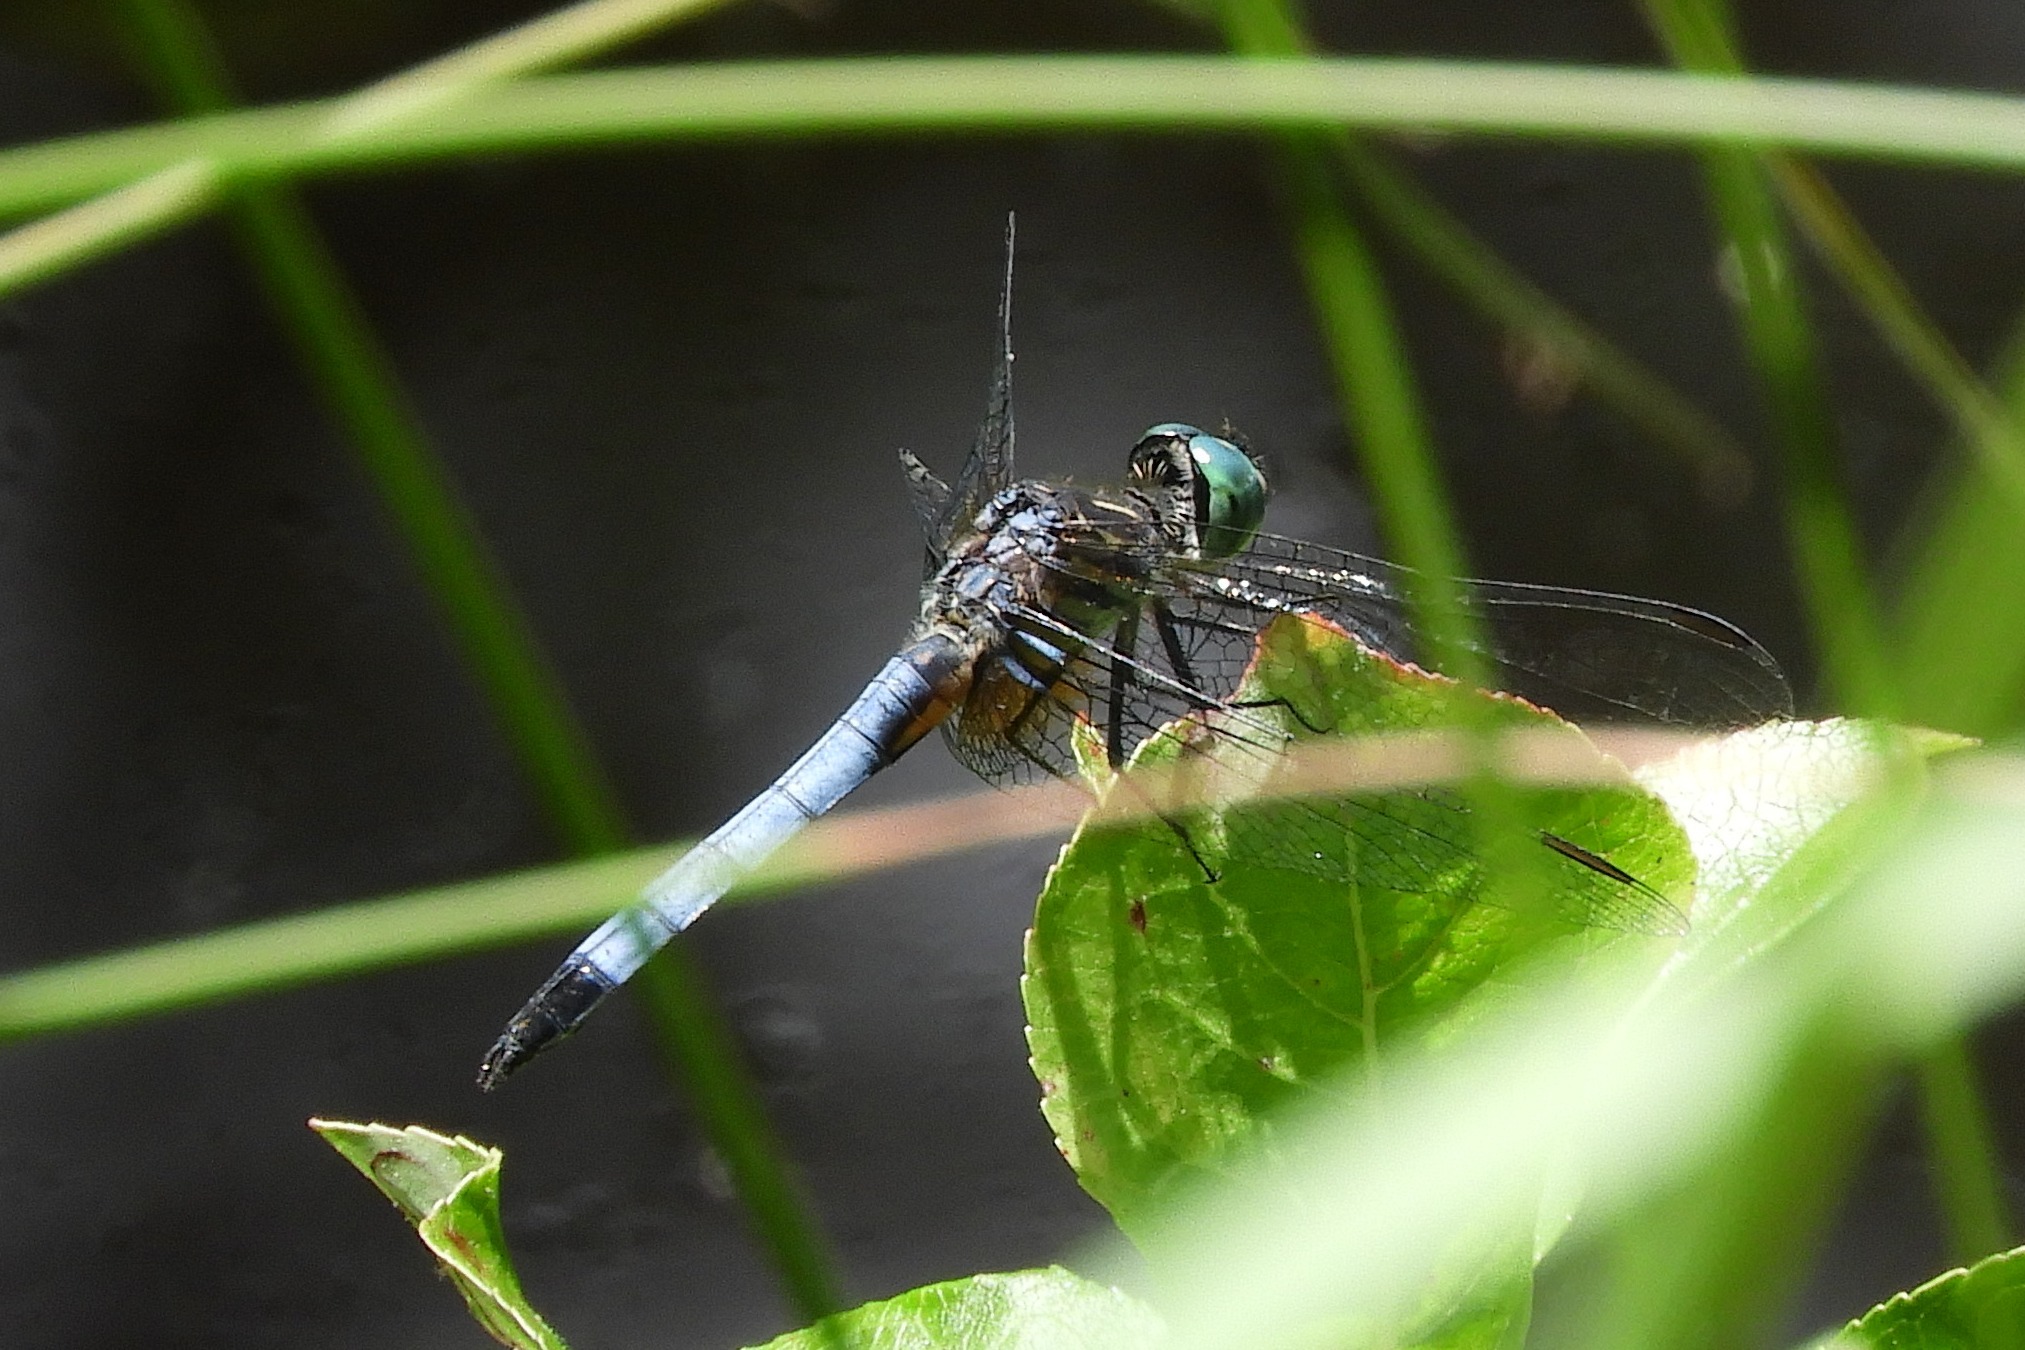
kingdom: Animalia
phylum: Arthropoda
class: Insecta
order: Odonata
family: Libellulidae
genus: Pachydiplax
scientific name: Pachydiplax longipennis
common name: Blue dasher
